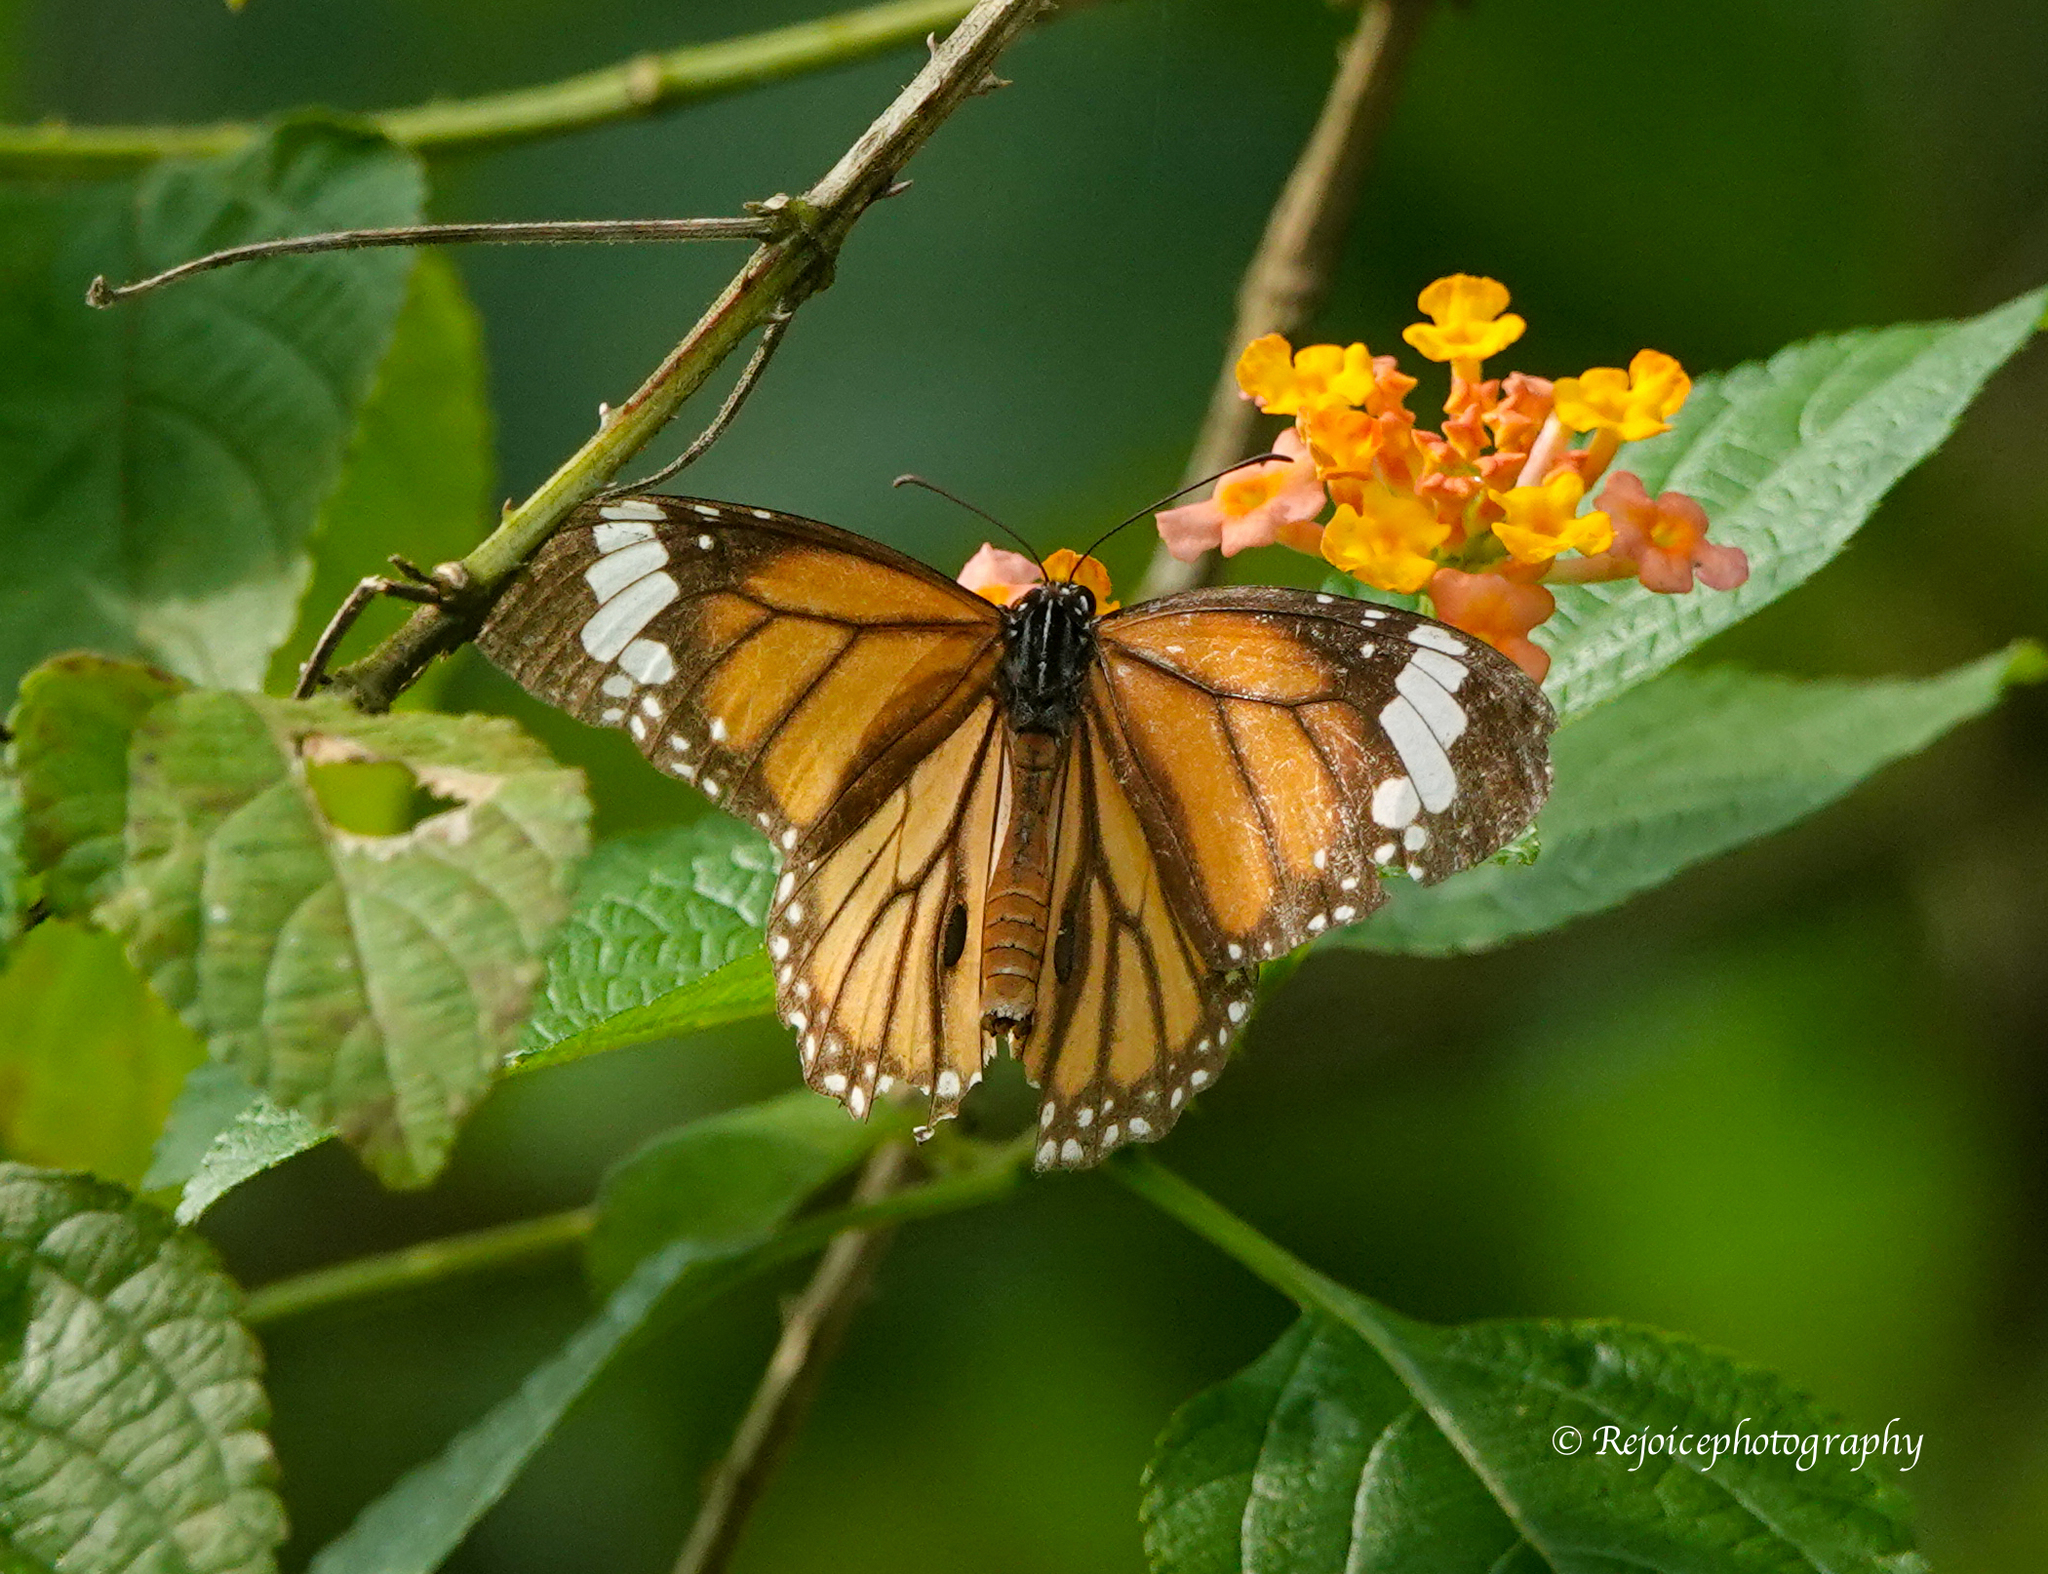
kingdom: Animalia
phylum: Arthropoda
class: Insecta
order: Lepidoptera
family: Nymphalidae
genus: Danaus
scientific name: Danaus genutia
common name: Common tiger butterfly
